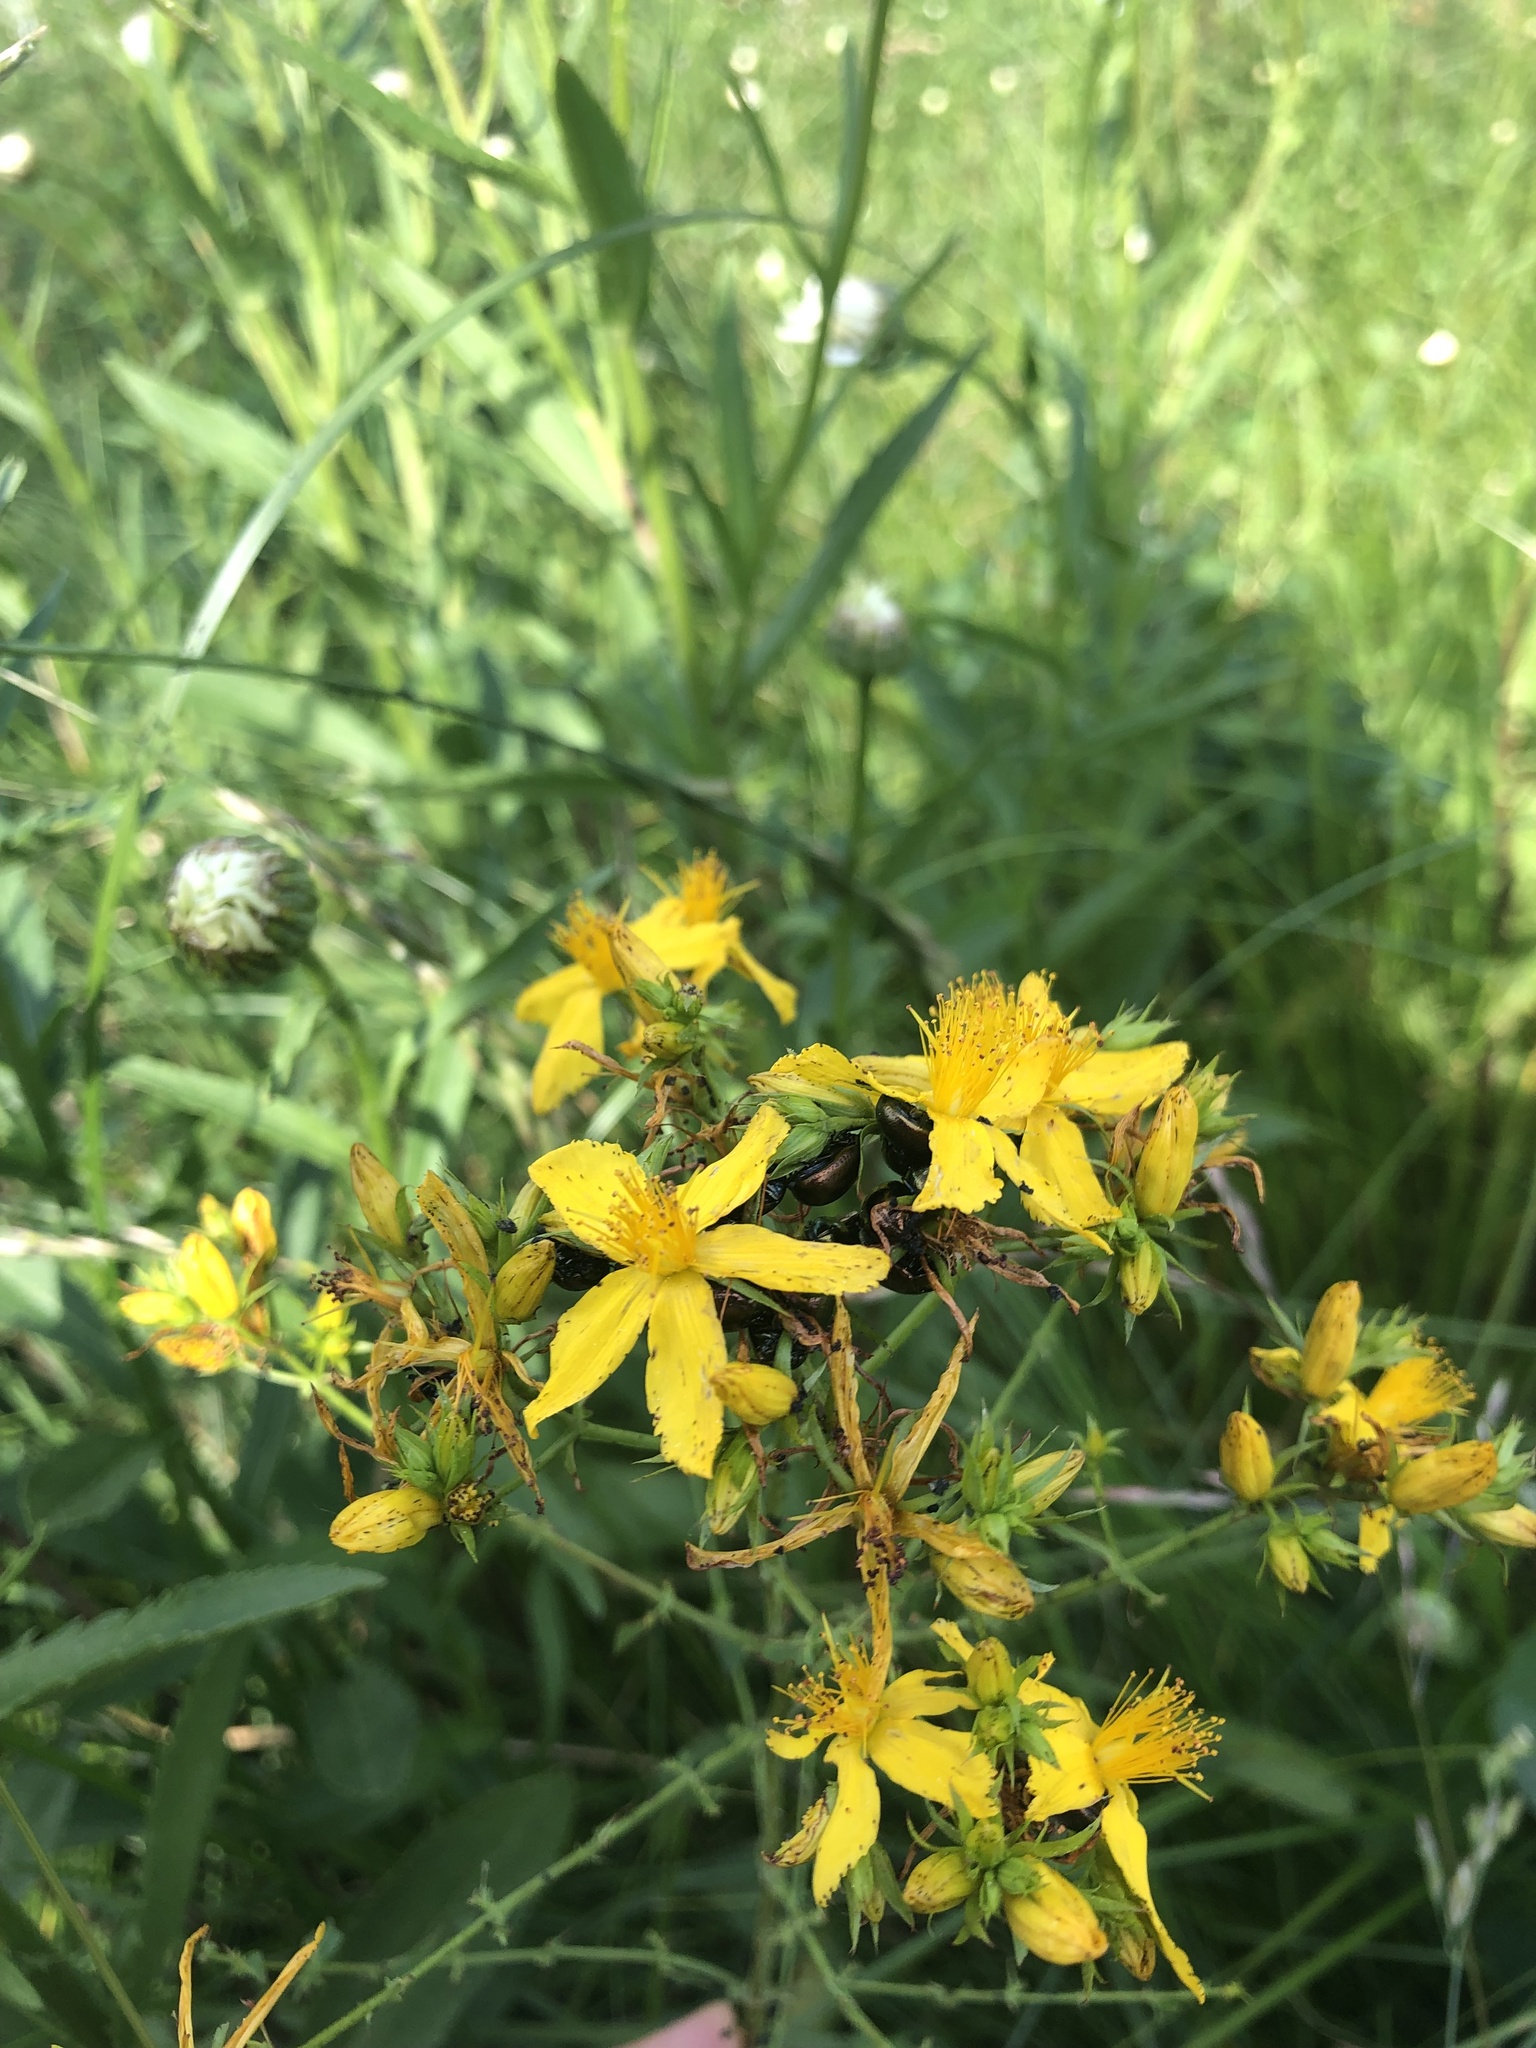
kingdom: Plantae
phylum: Tracheophyta
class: Magnoliopsida
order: Malpighiales
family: Hypericaceae
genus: Hypericum
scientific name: Hypericum perforatum
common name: Common st. johnswort
